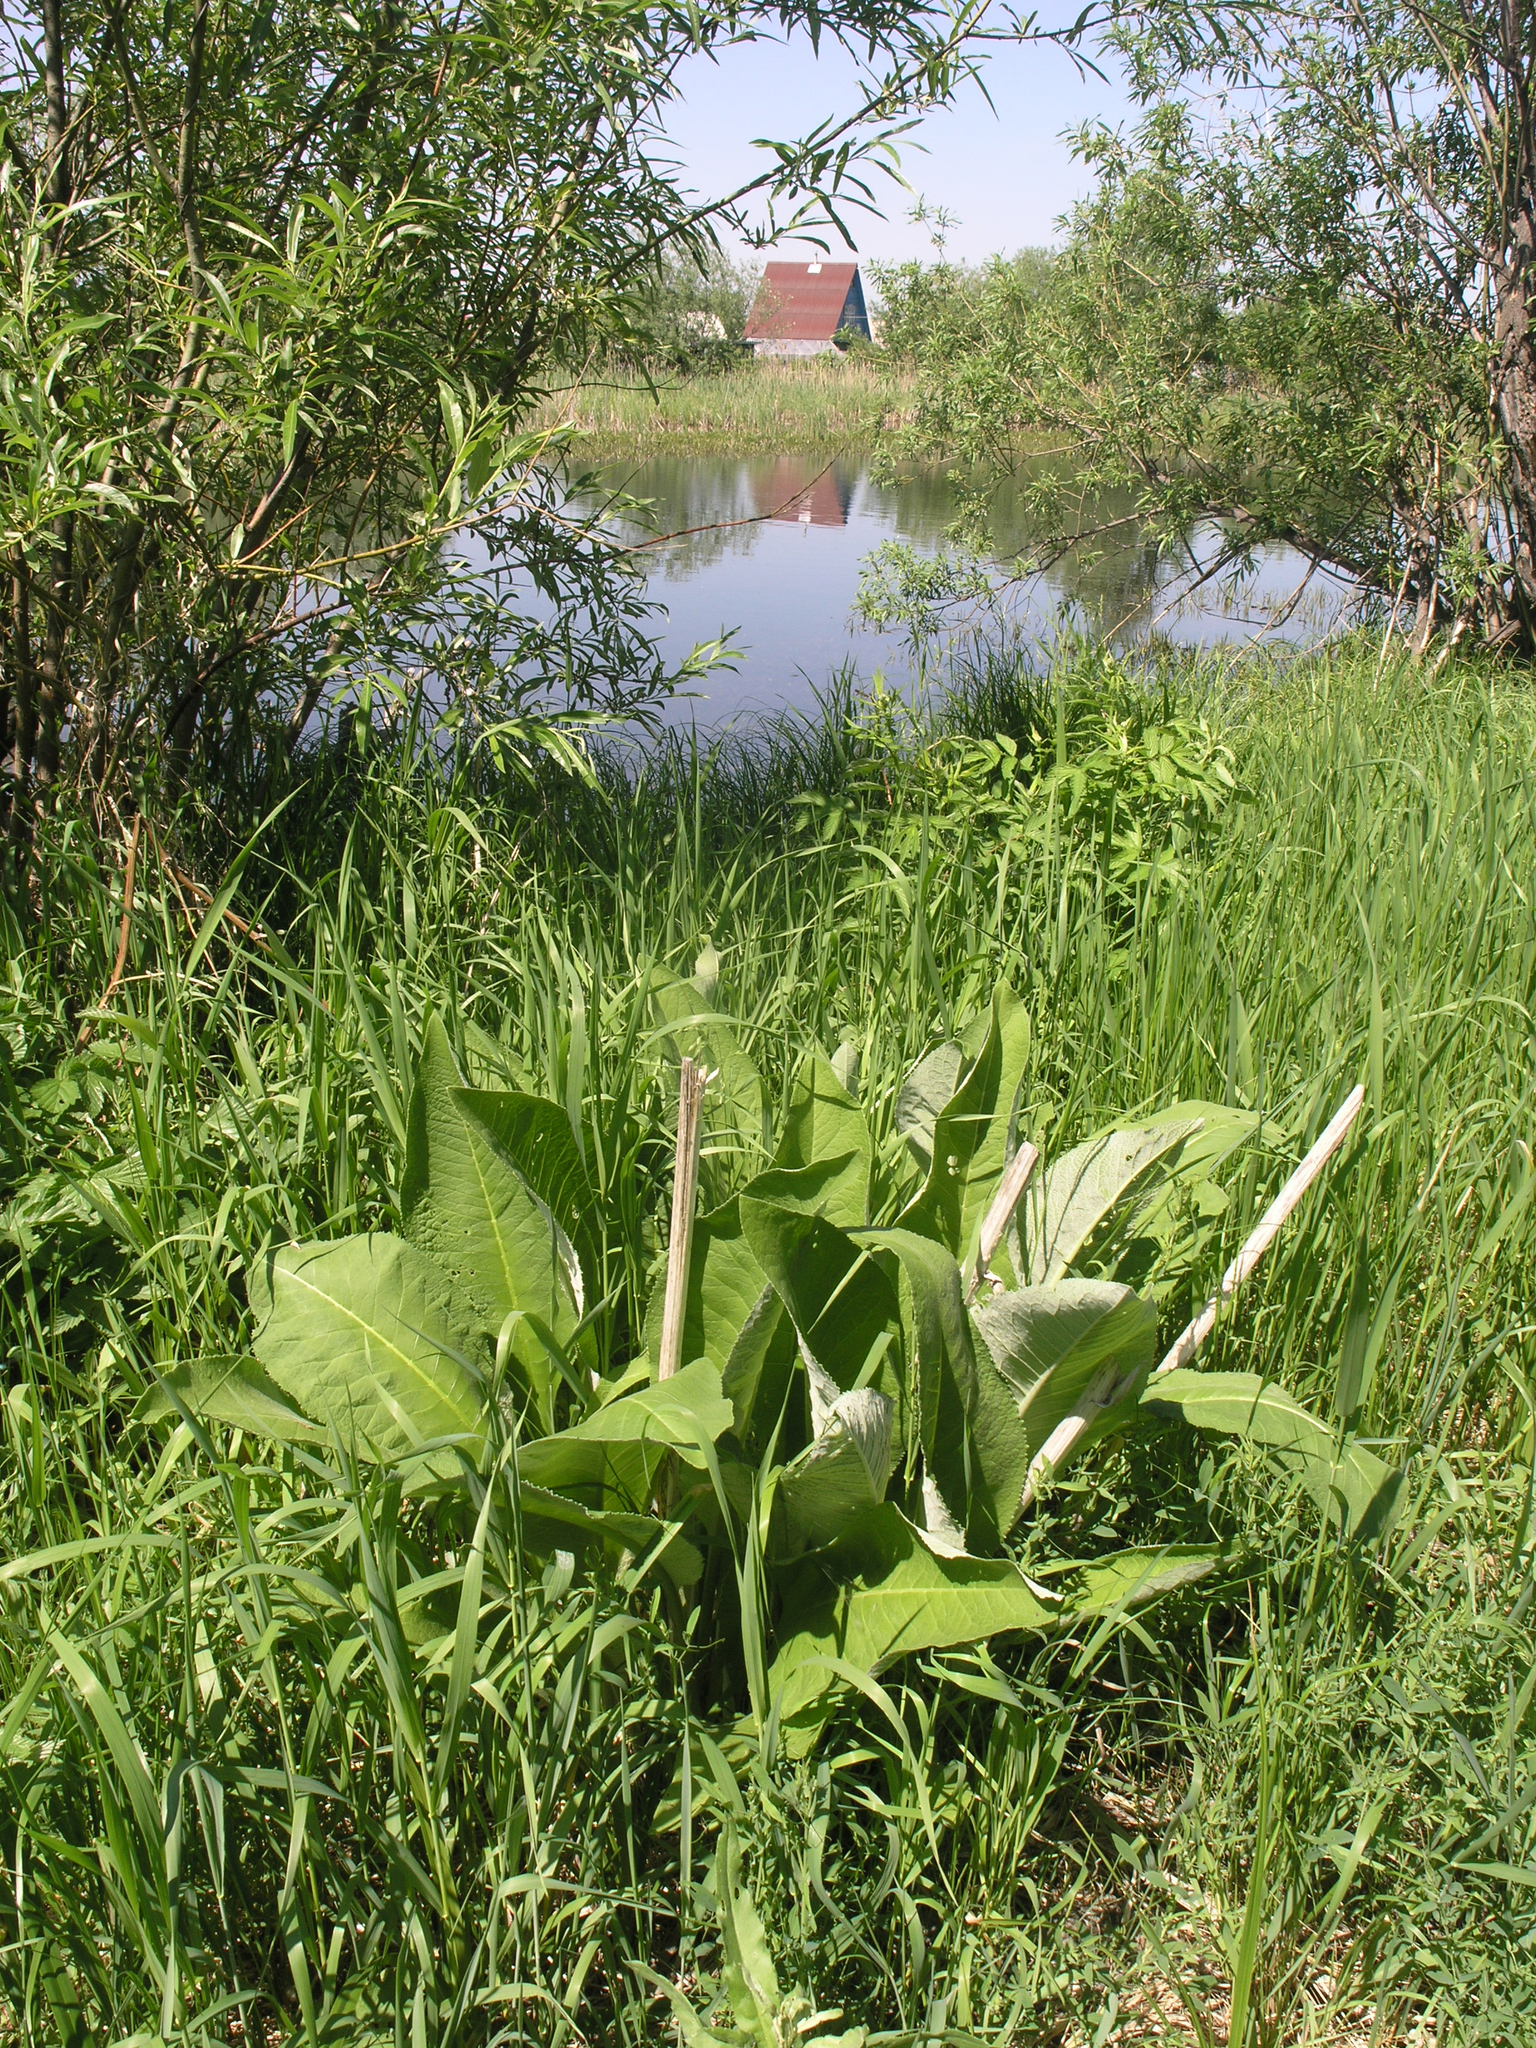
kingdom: Plantae
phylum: Tracheophyta
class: Magnoliopsida
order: Asterales
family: Asteraceae
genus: Inula
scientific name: Inula helenium
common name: Elecampane
